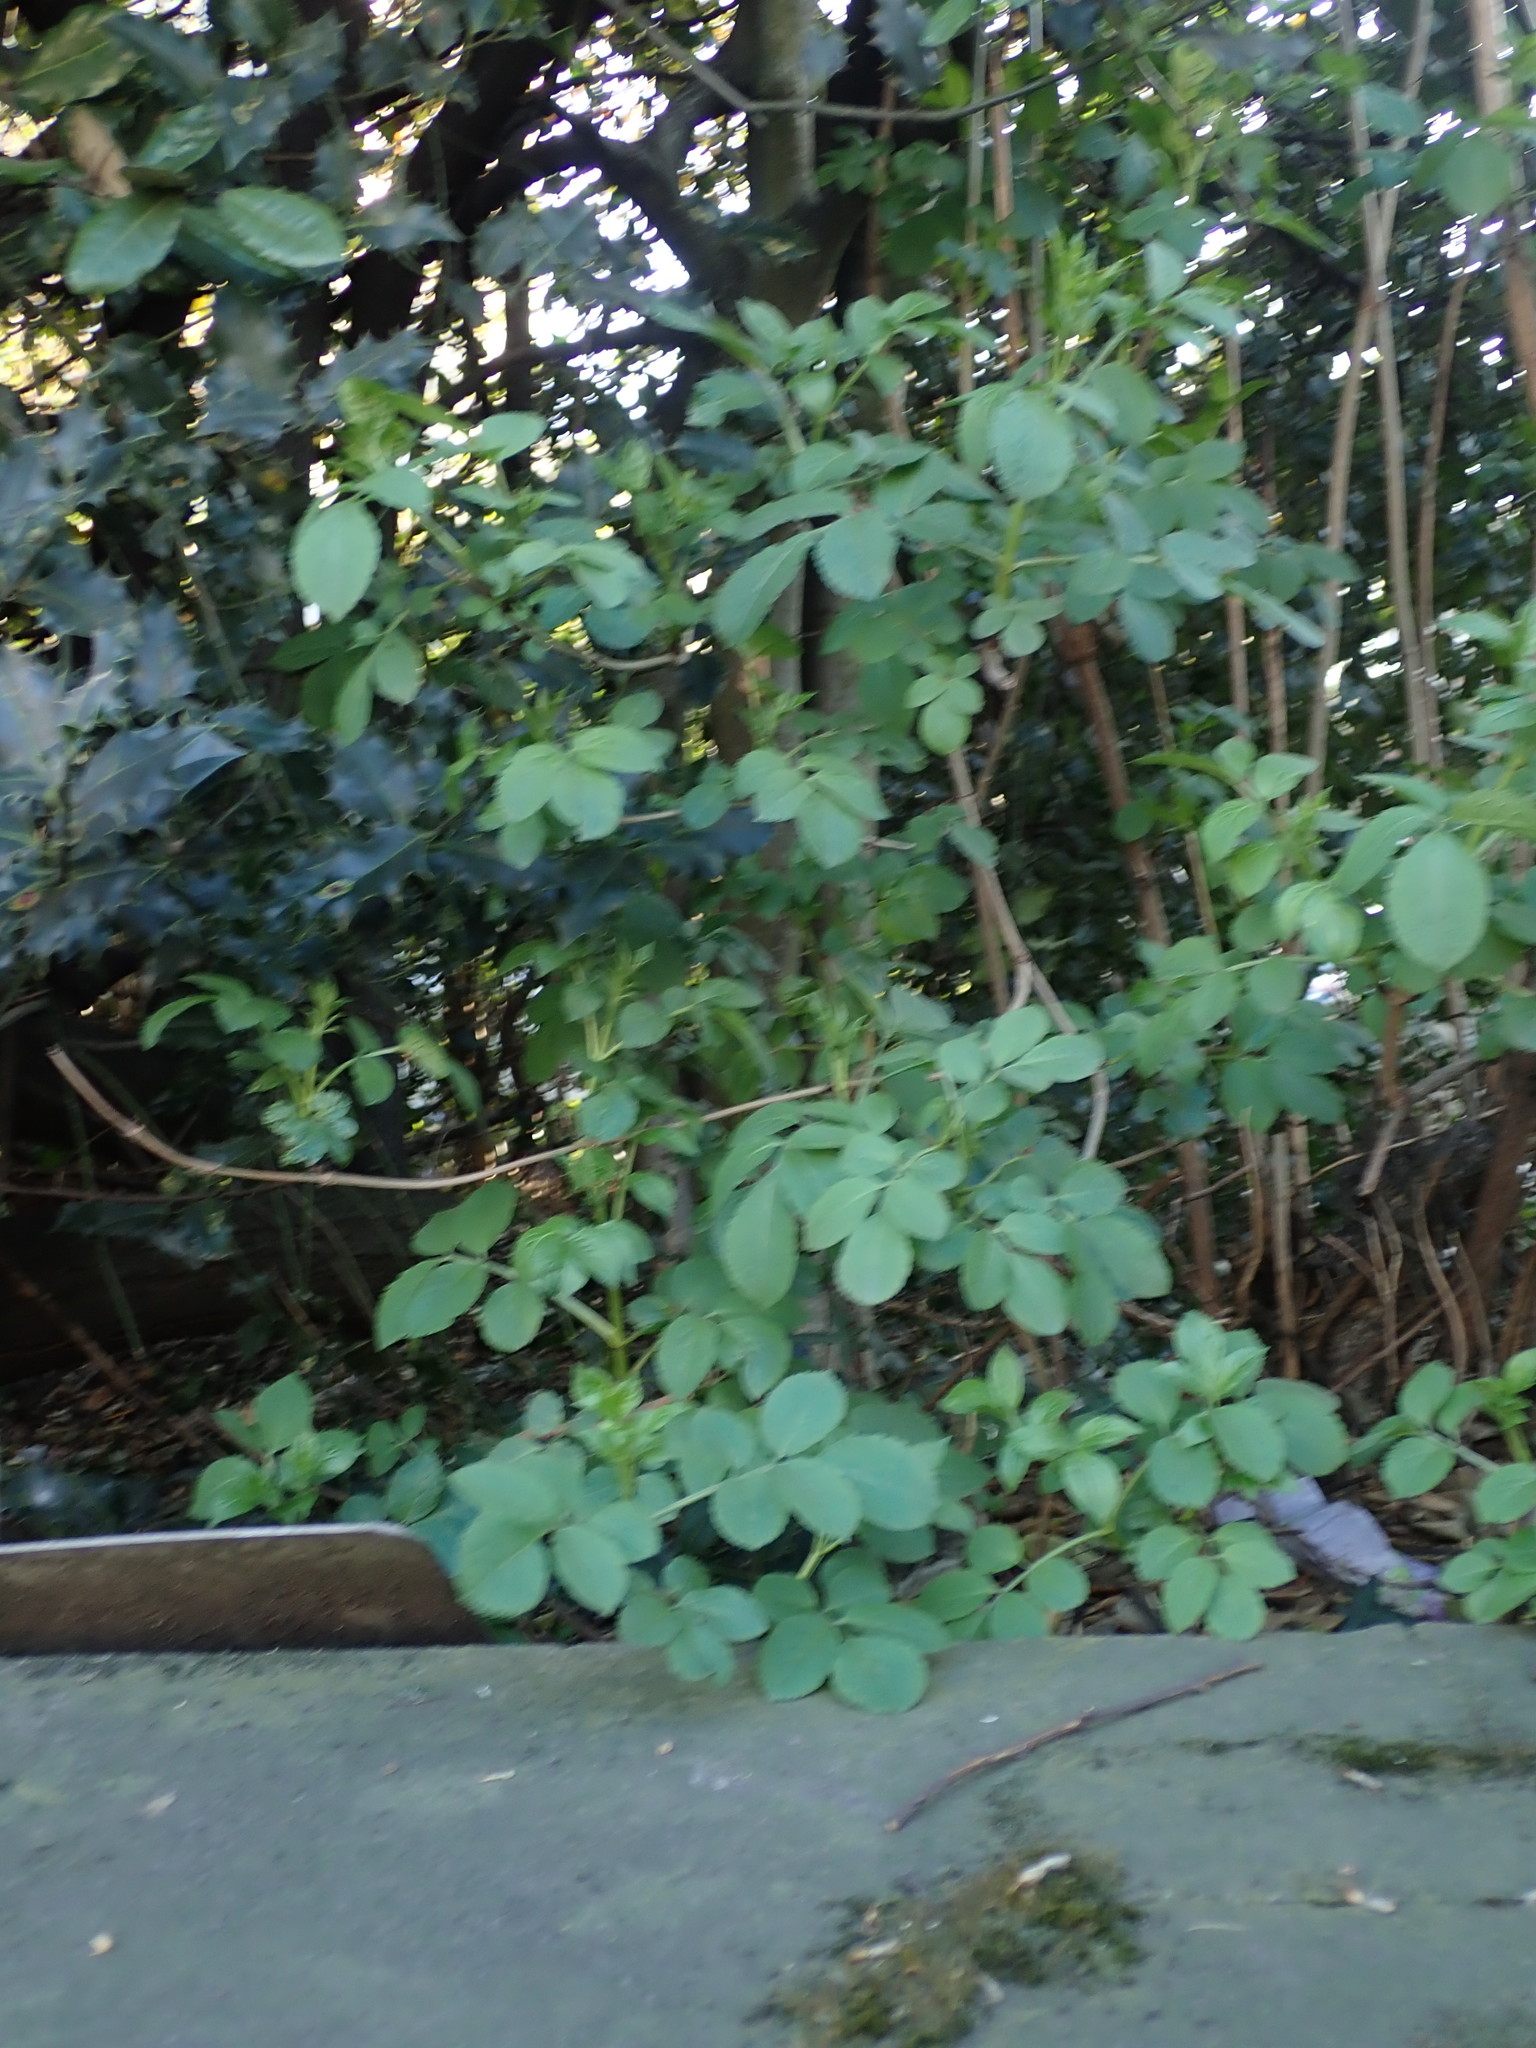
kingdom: Plantae
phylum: Tracheophyta
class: Magnoliopsida
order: Dipsacales
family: Viburnaceae
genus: Sambucus
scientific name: Sambucus nigra
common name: Elder
